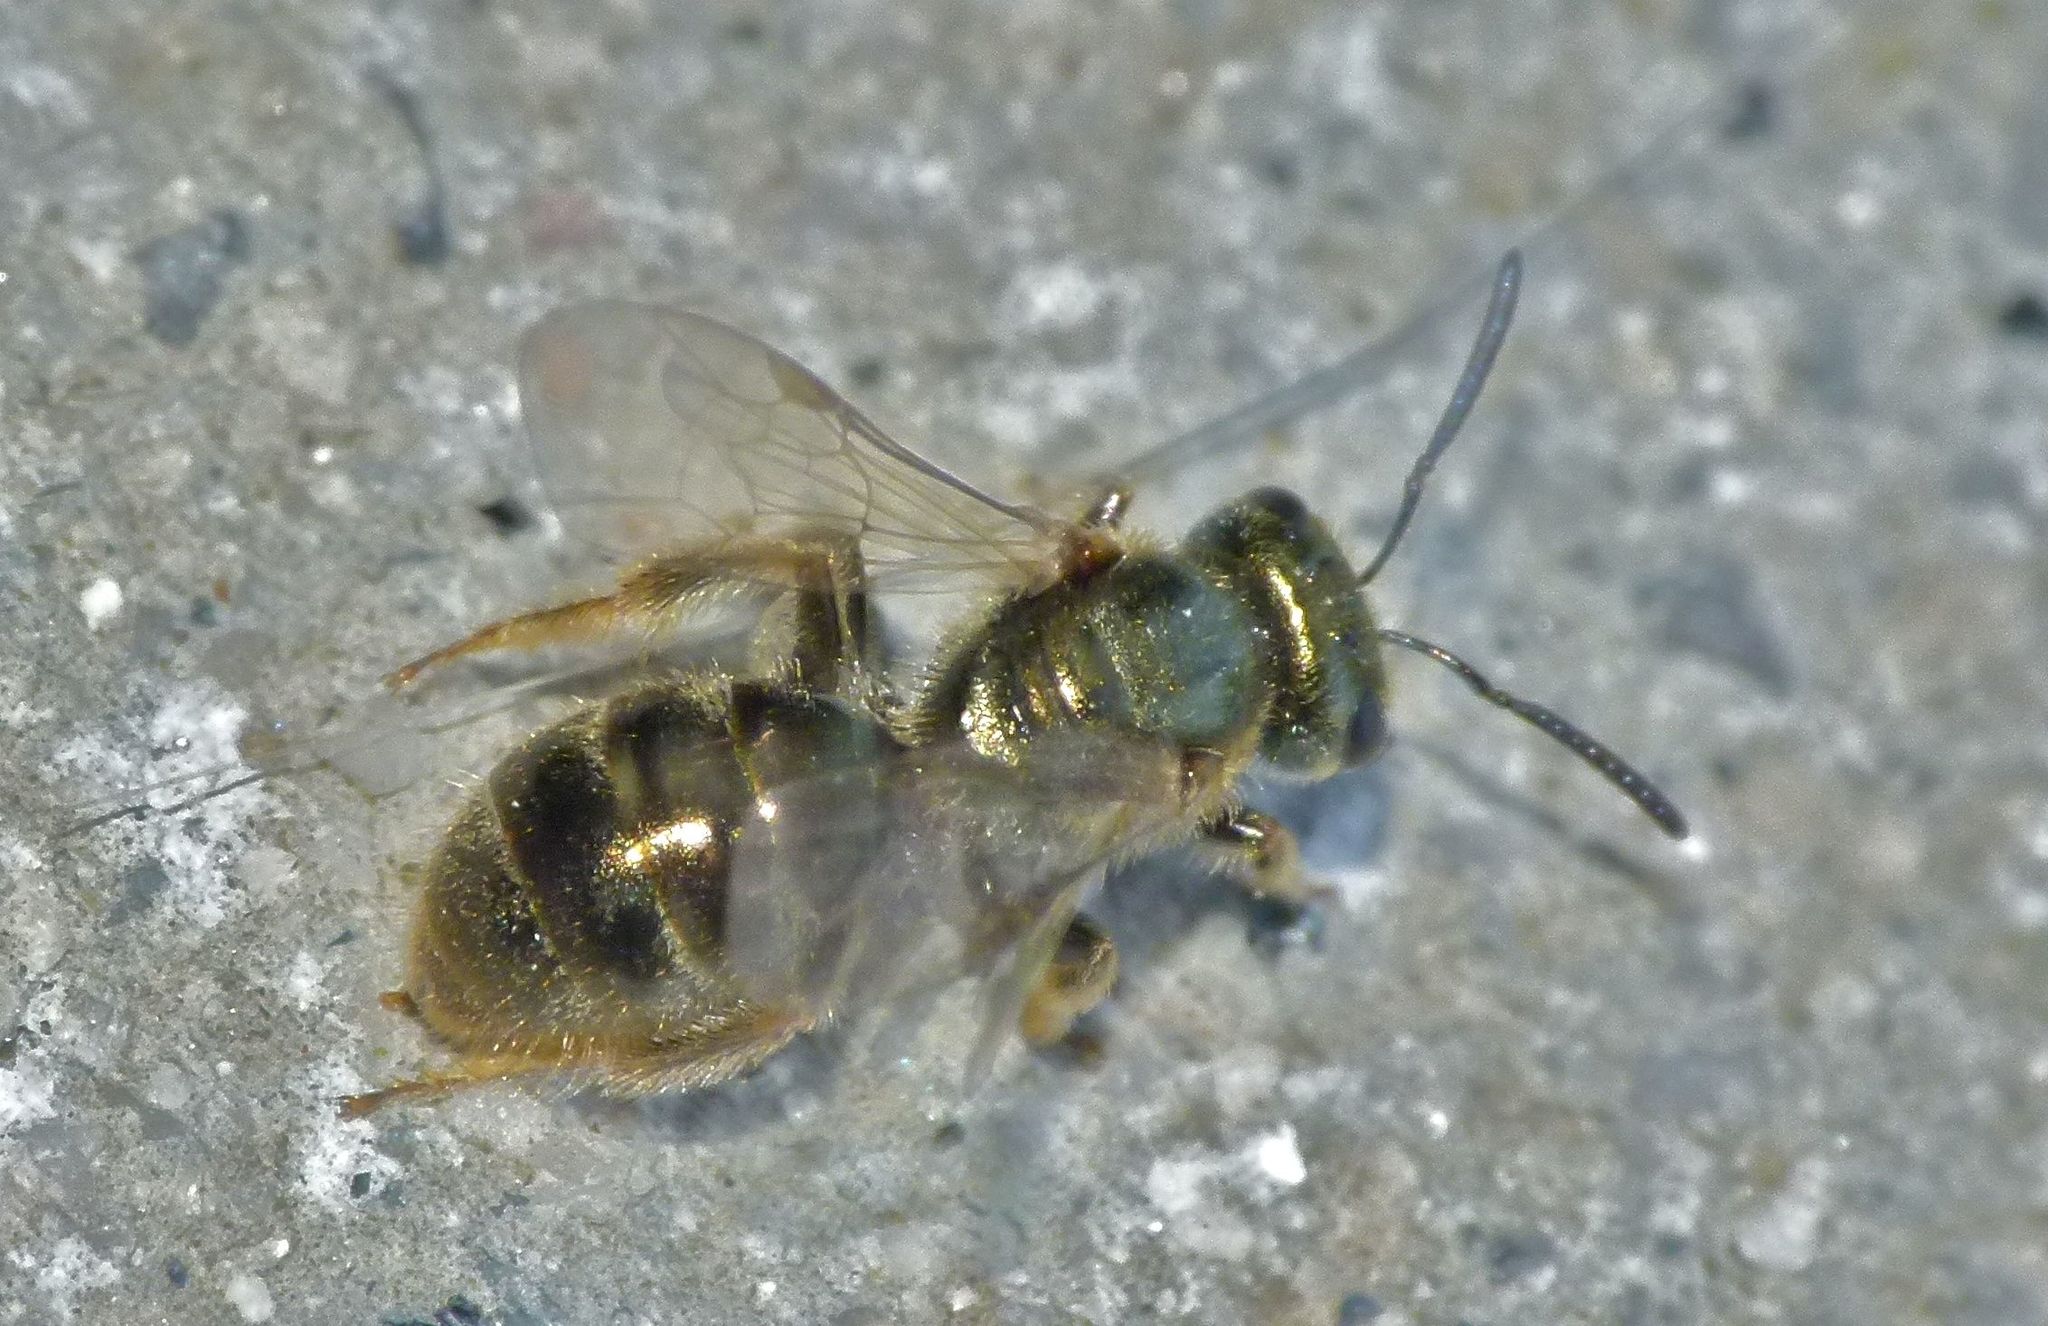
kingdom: Animalia
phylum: Arthropoda
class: Insecta
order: Hymenoptera
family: Halictidae
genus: Lasioglossum
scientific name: Lasioglossum zephyrum
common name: Zephyr sweat bee
